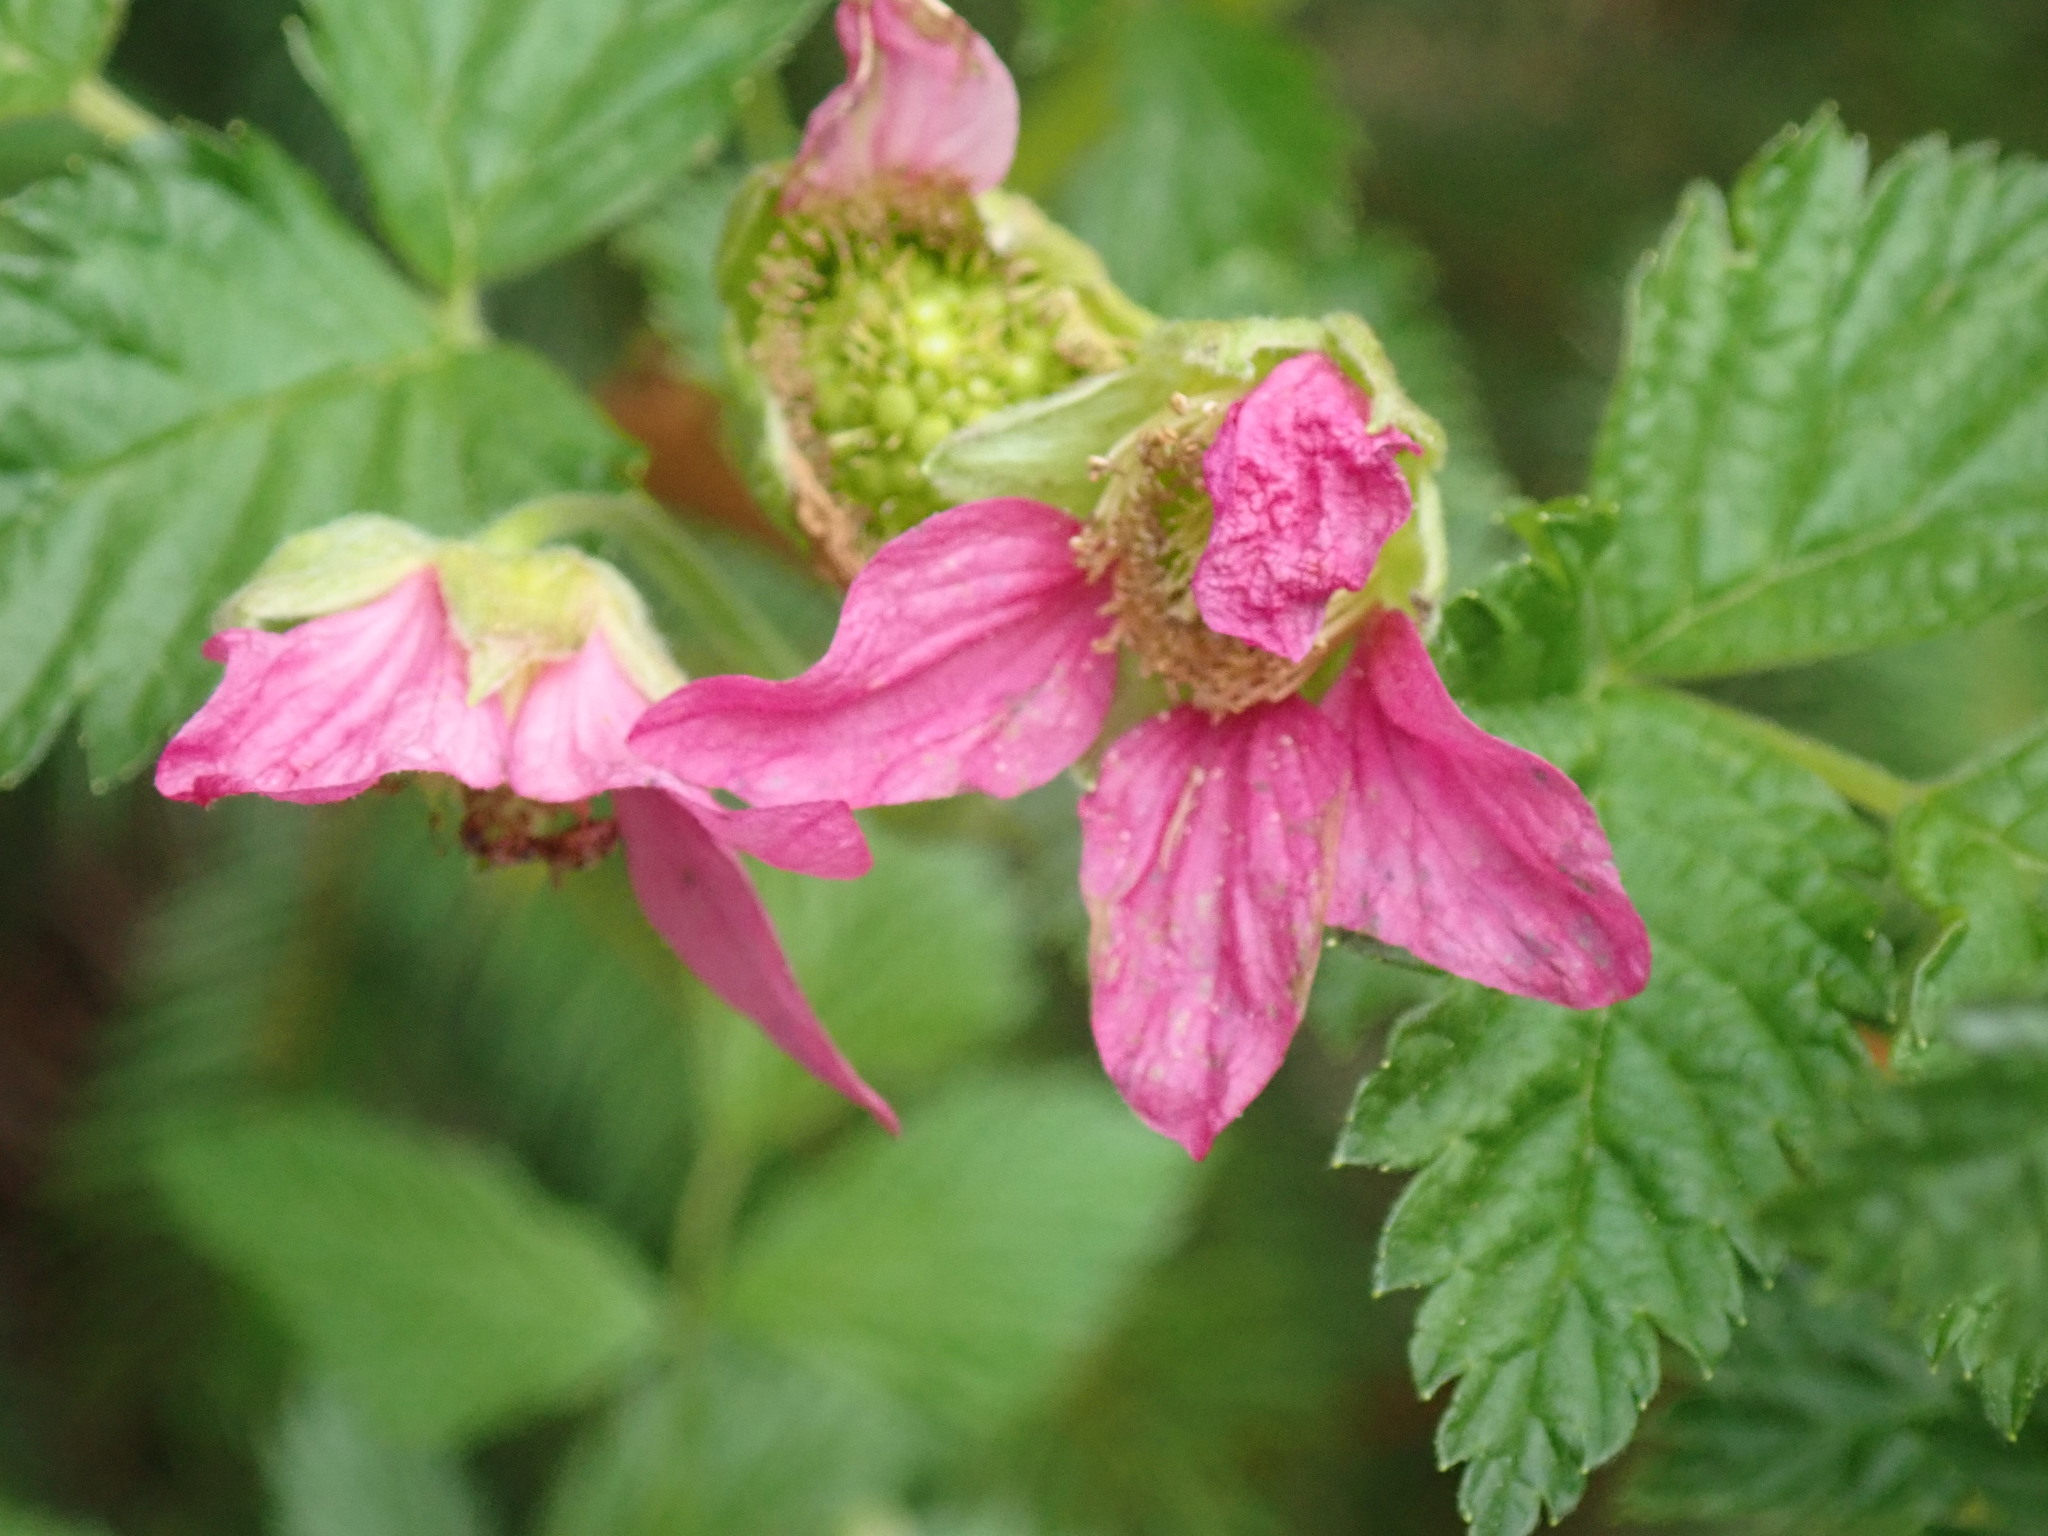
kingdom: Plantae
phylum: Tracheophyta
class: Magnoliopsida
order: Rosales
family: Rosaceae
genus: Rubus
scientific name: Rubus spectabilis
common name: Salmonberry
